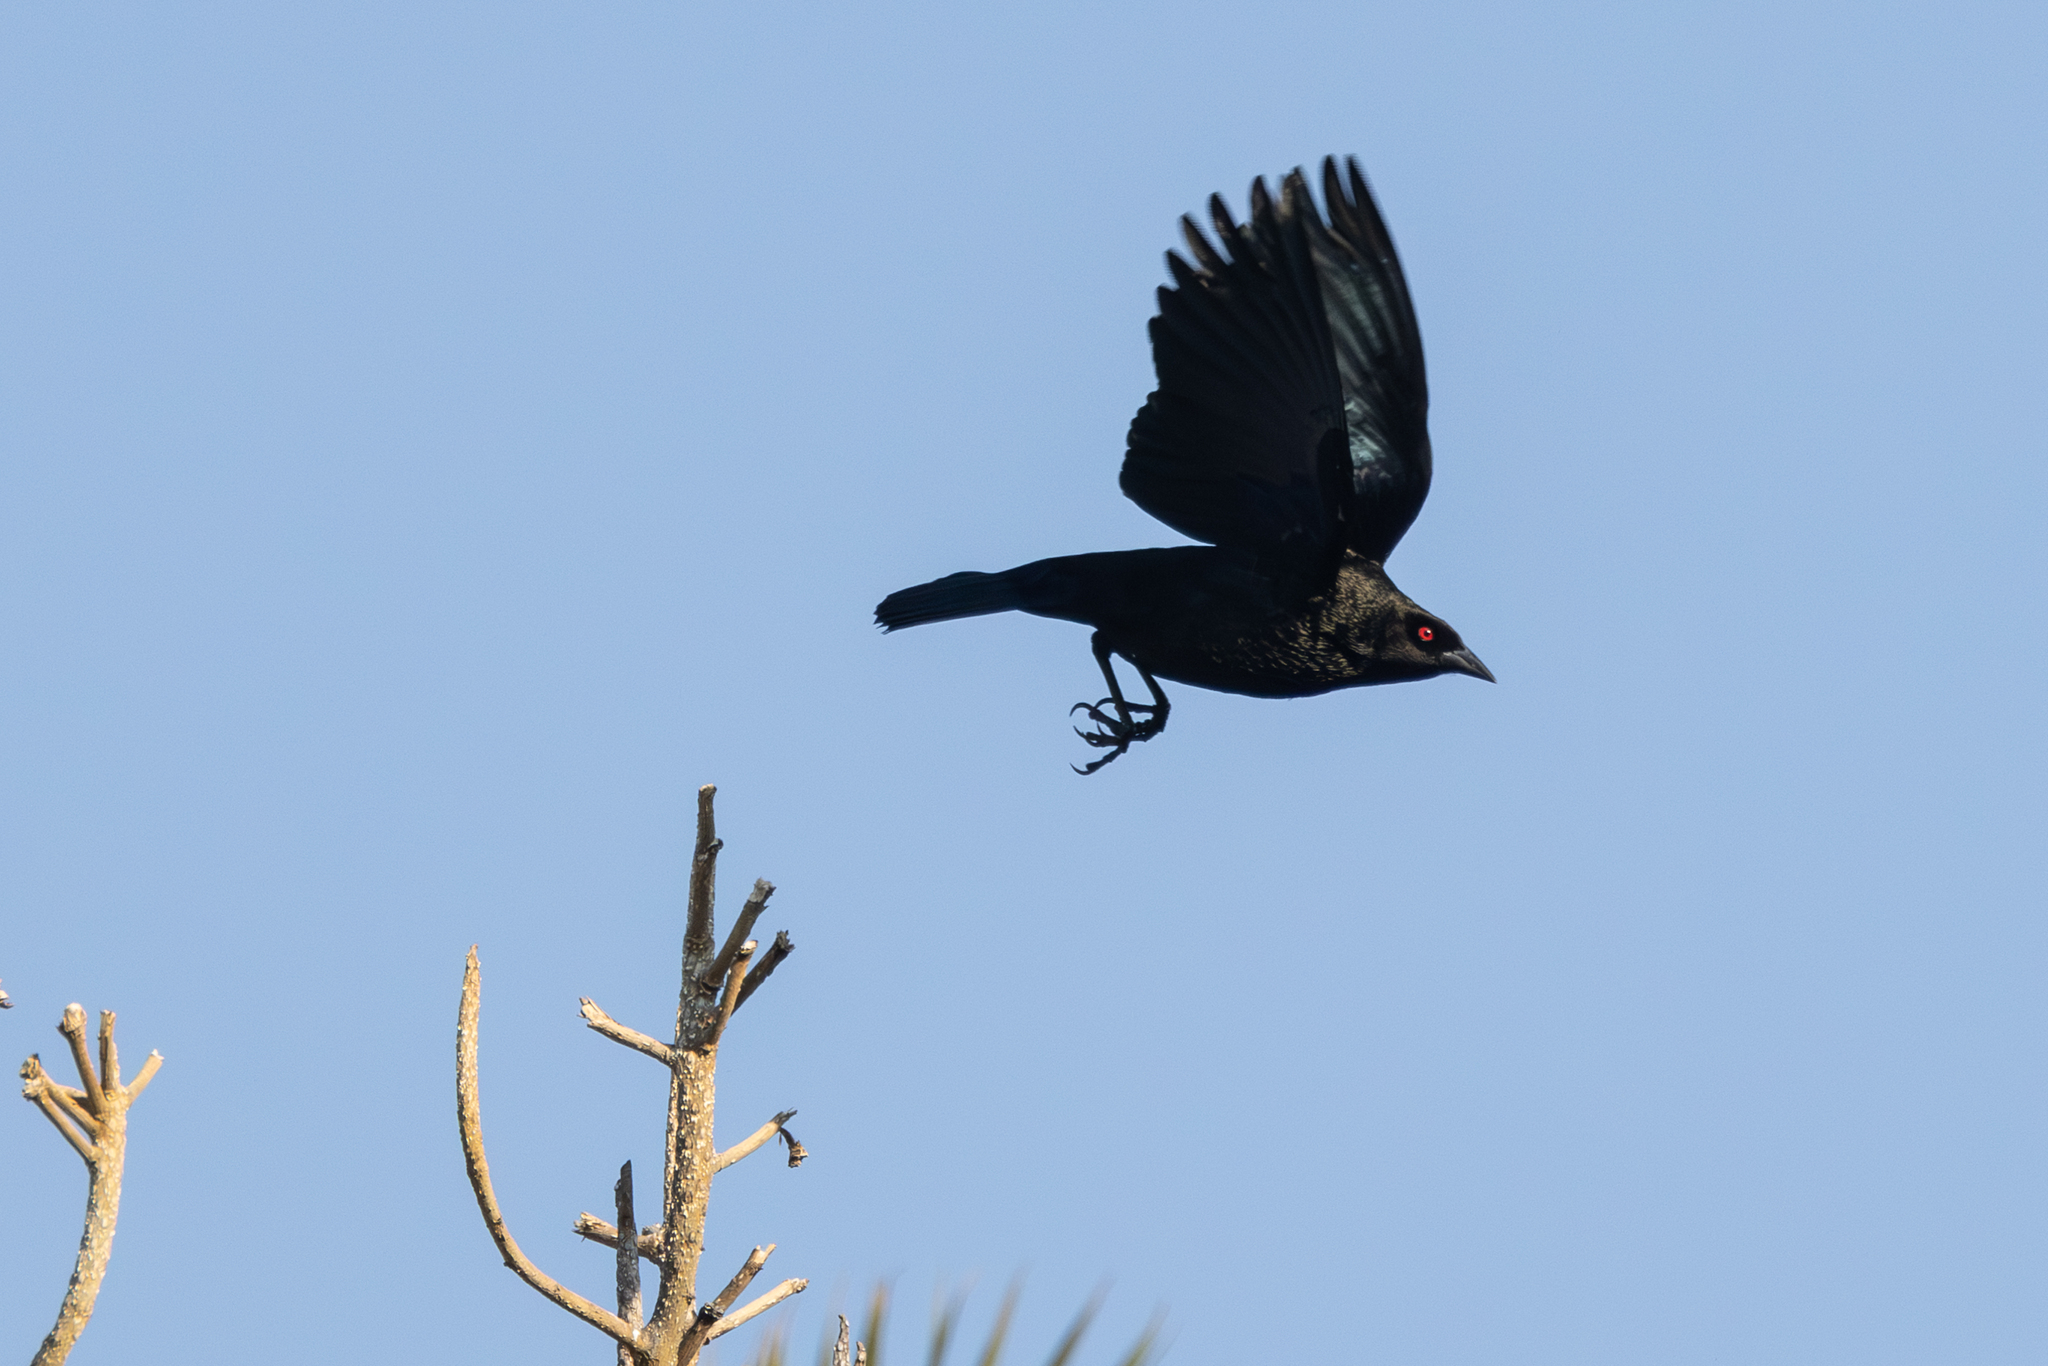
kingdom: Animalia
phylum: Chordata
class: Aves
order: Passeriformes
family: Icteridae
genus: Molothrus
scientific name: Molothrus aeneus
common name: Bronzed cowbird
